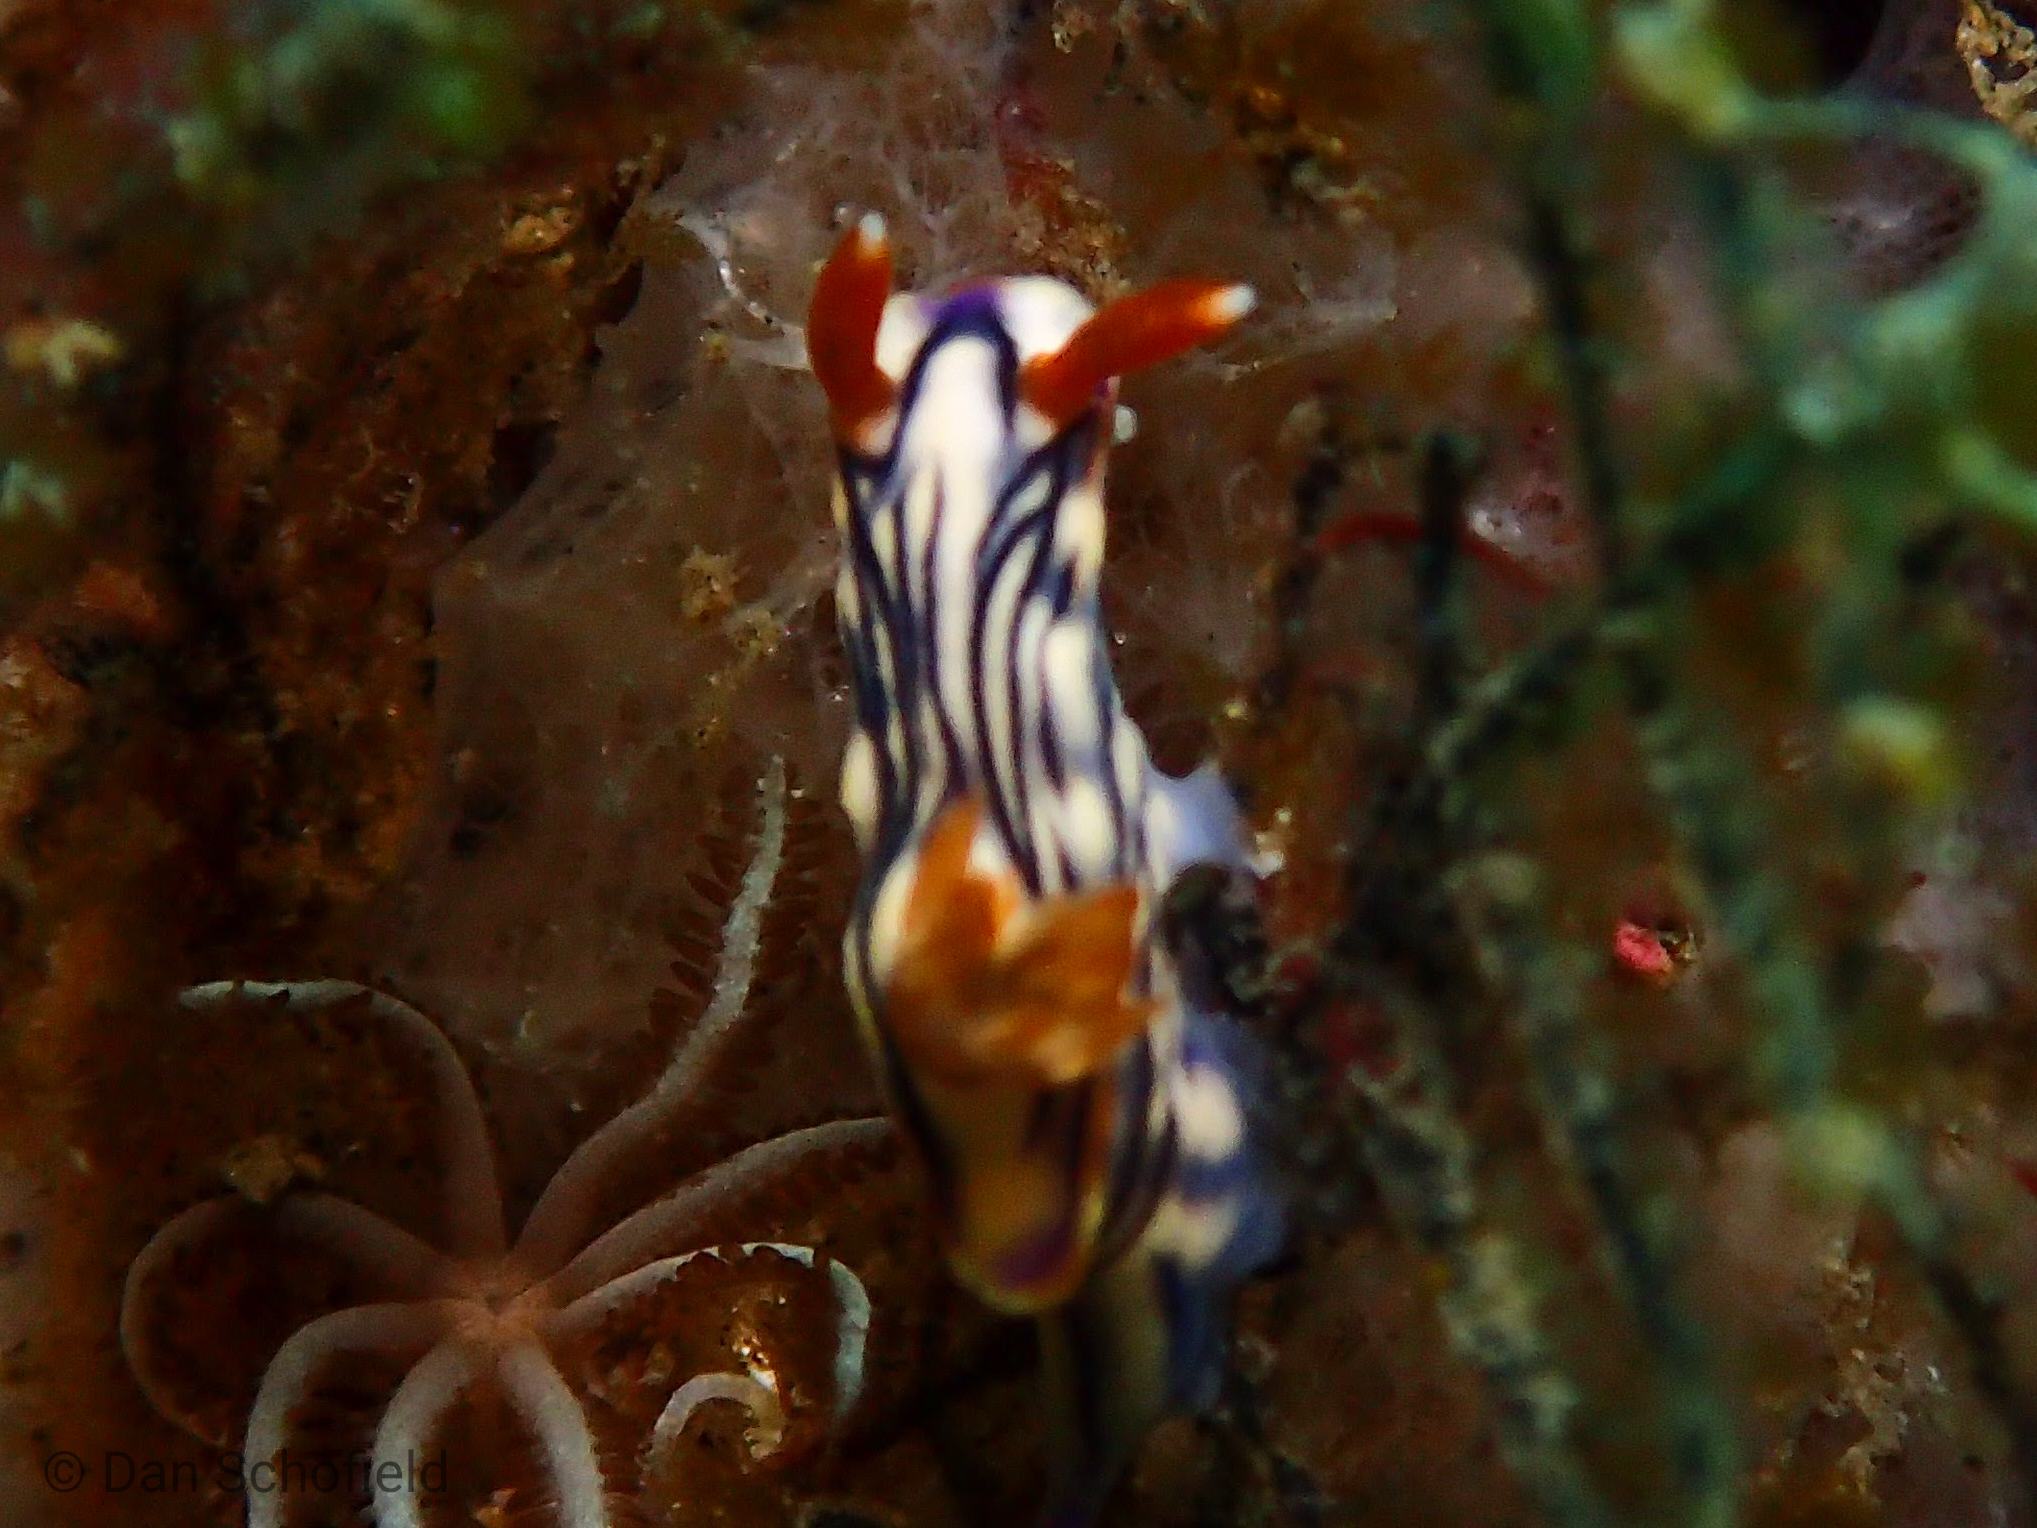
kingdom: Animalia
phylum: Mollusca
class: Gastropoda
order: Nudibranchia
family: Chromodorididae
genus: Hypselodoris
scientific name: Hypselodoris zephyra
